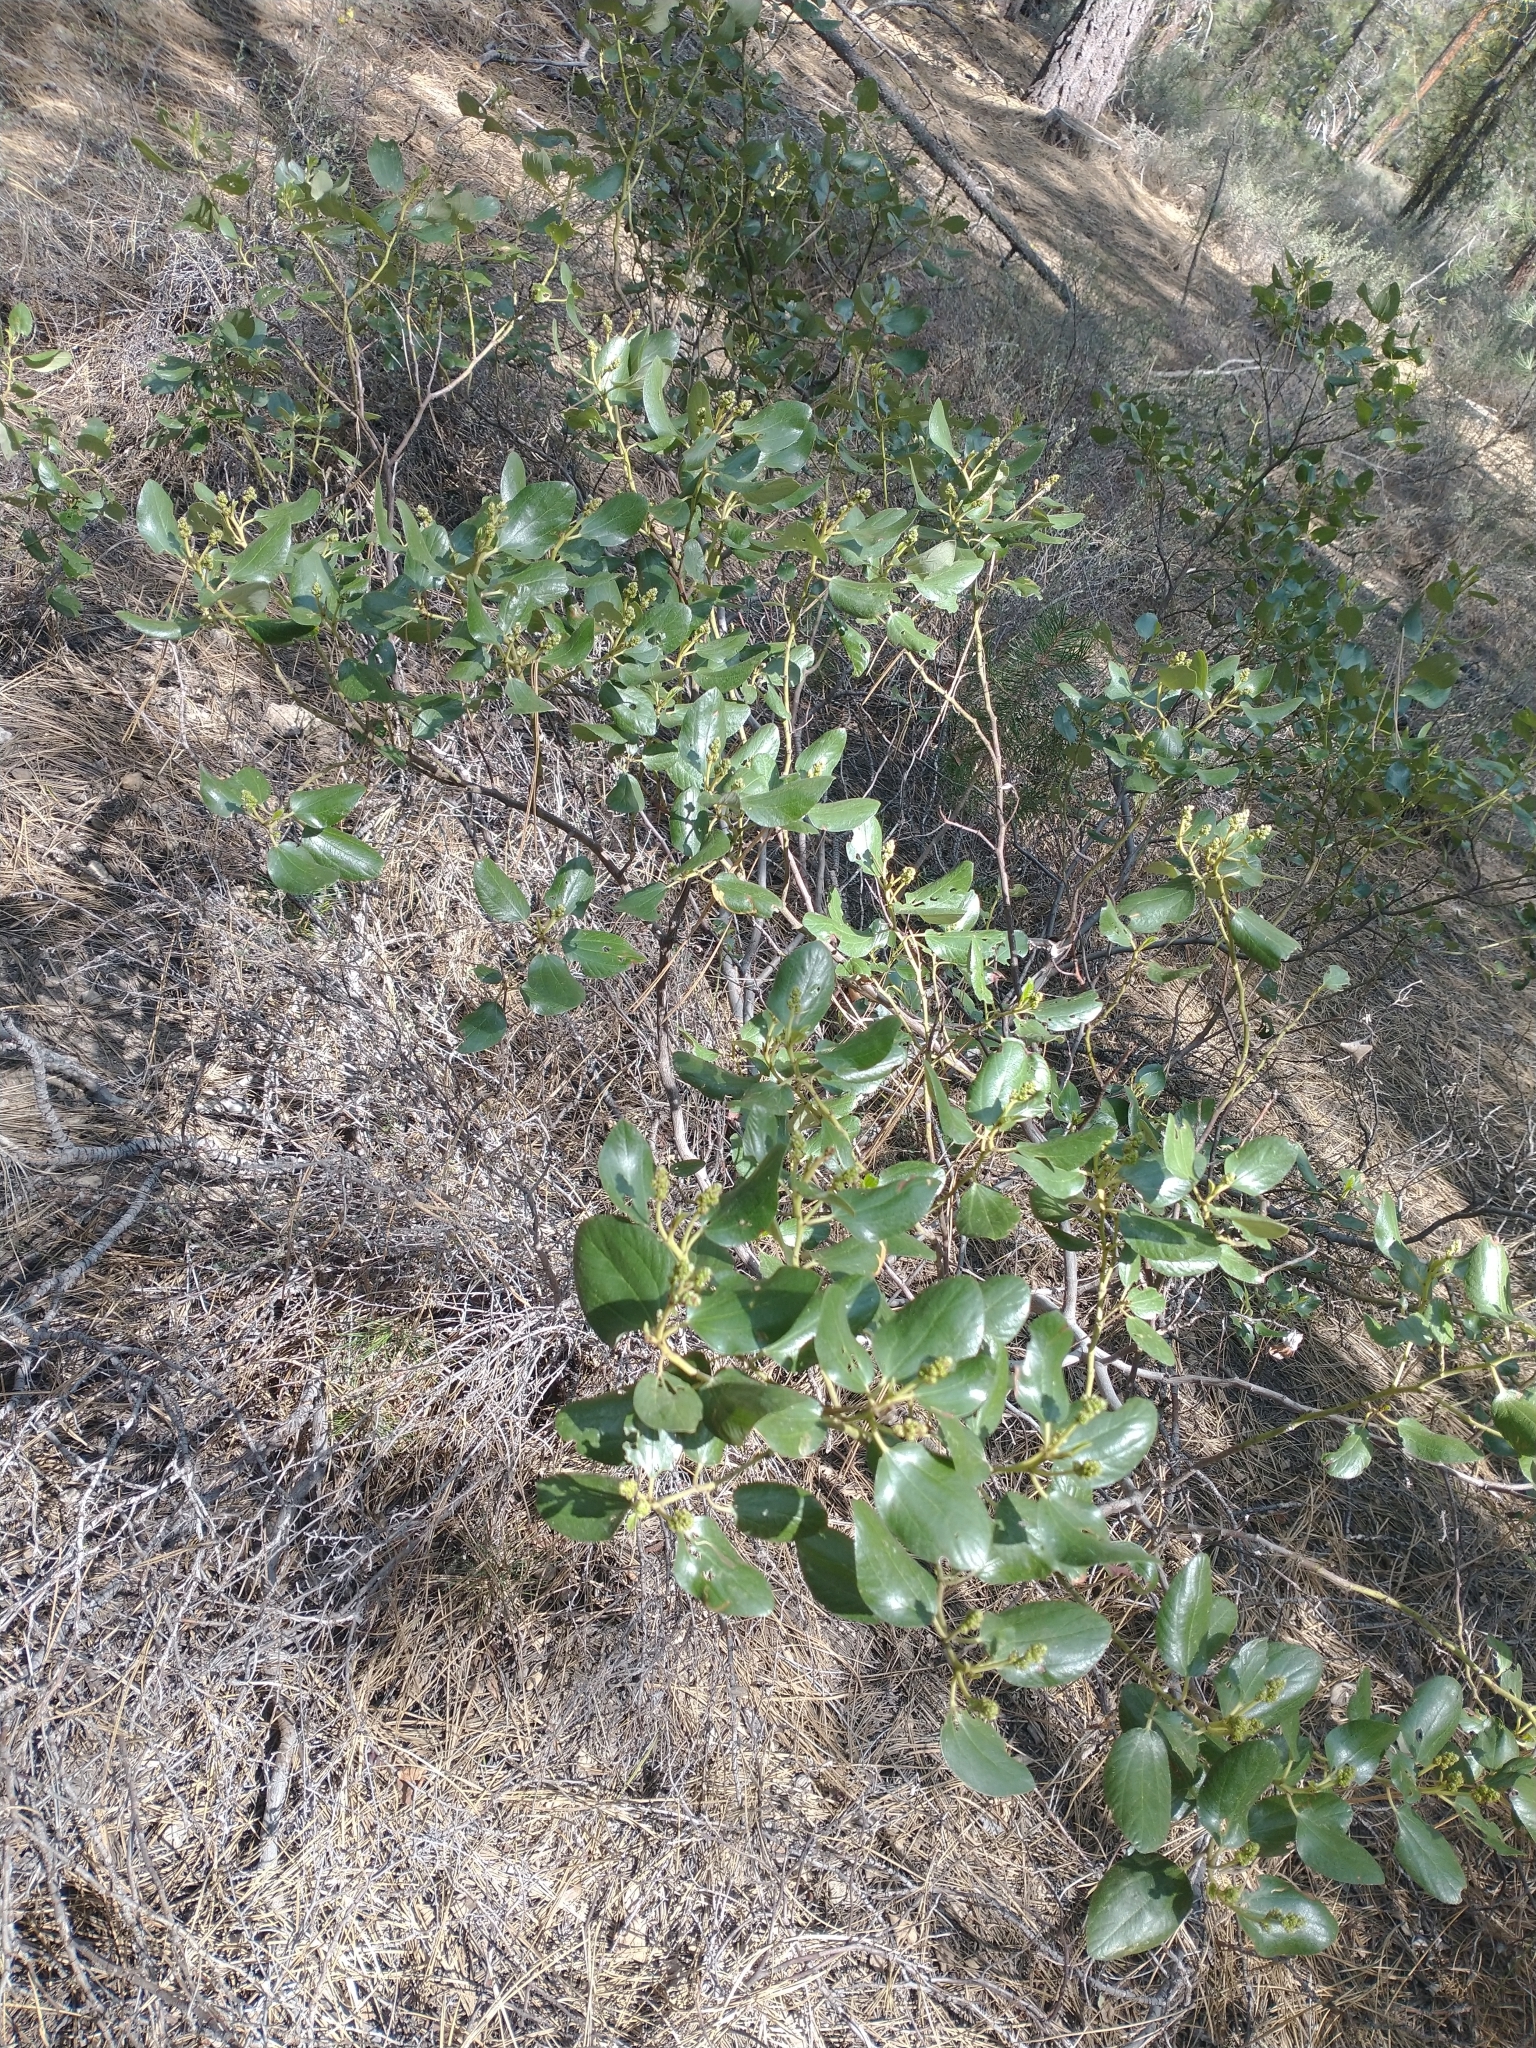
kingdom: Plantae
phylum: Tracheophyta
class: Magnoliopsida
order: Rosales
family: Rhamnaceae
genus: Ceanothus
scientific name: Ceanothus velutinus
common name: Snowbrush
